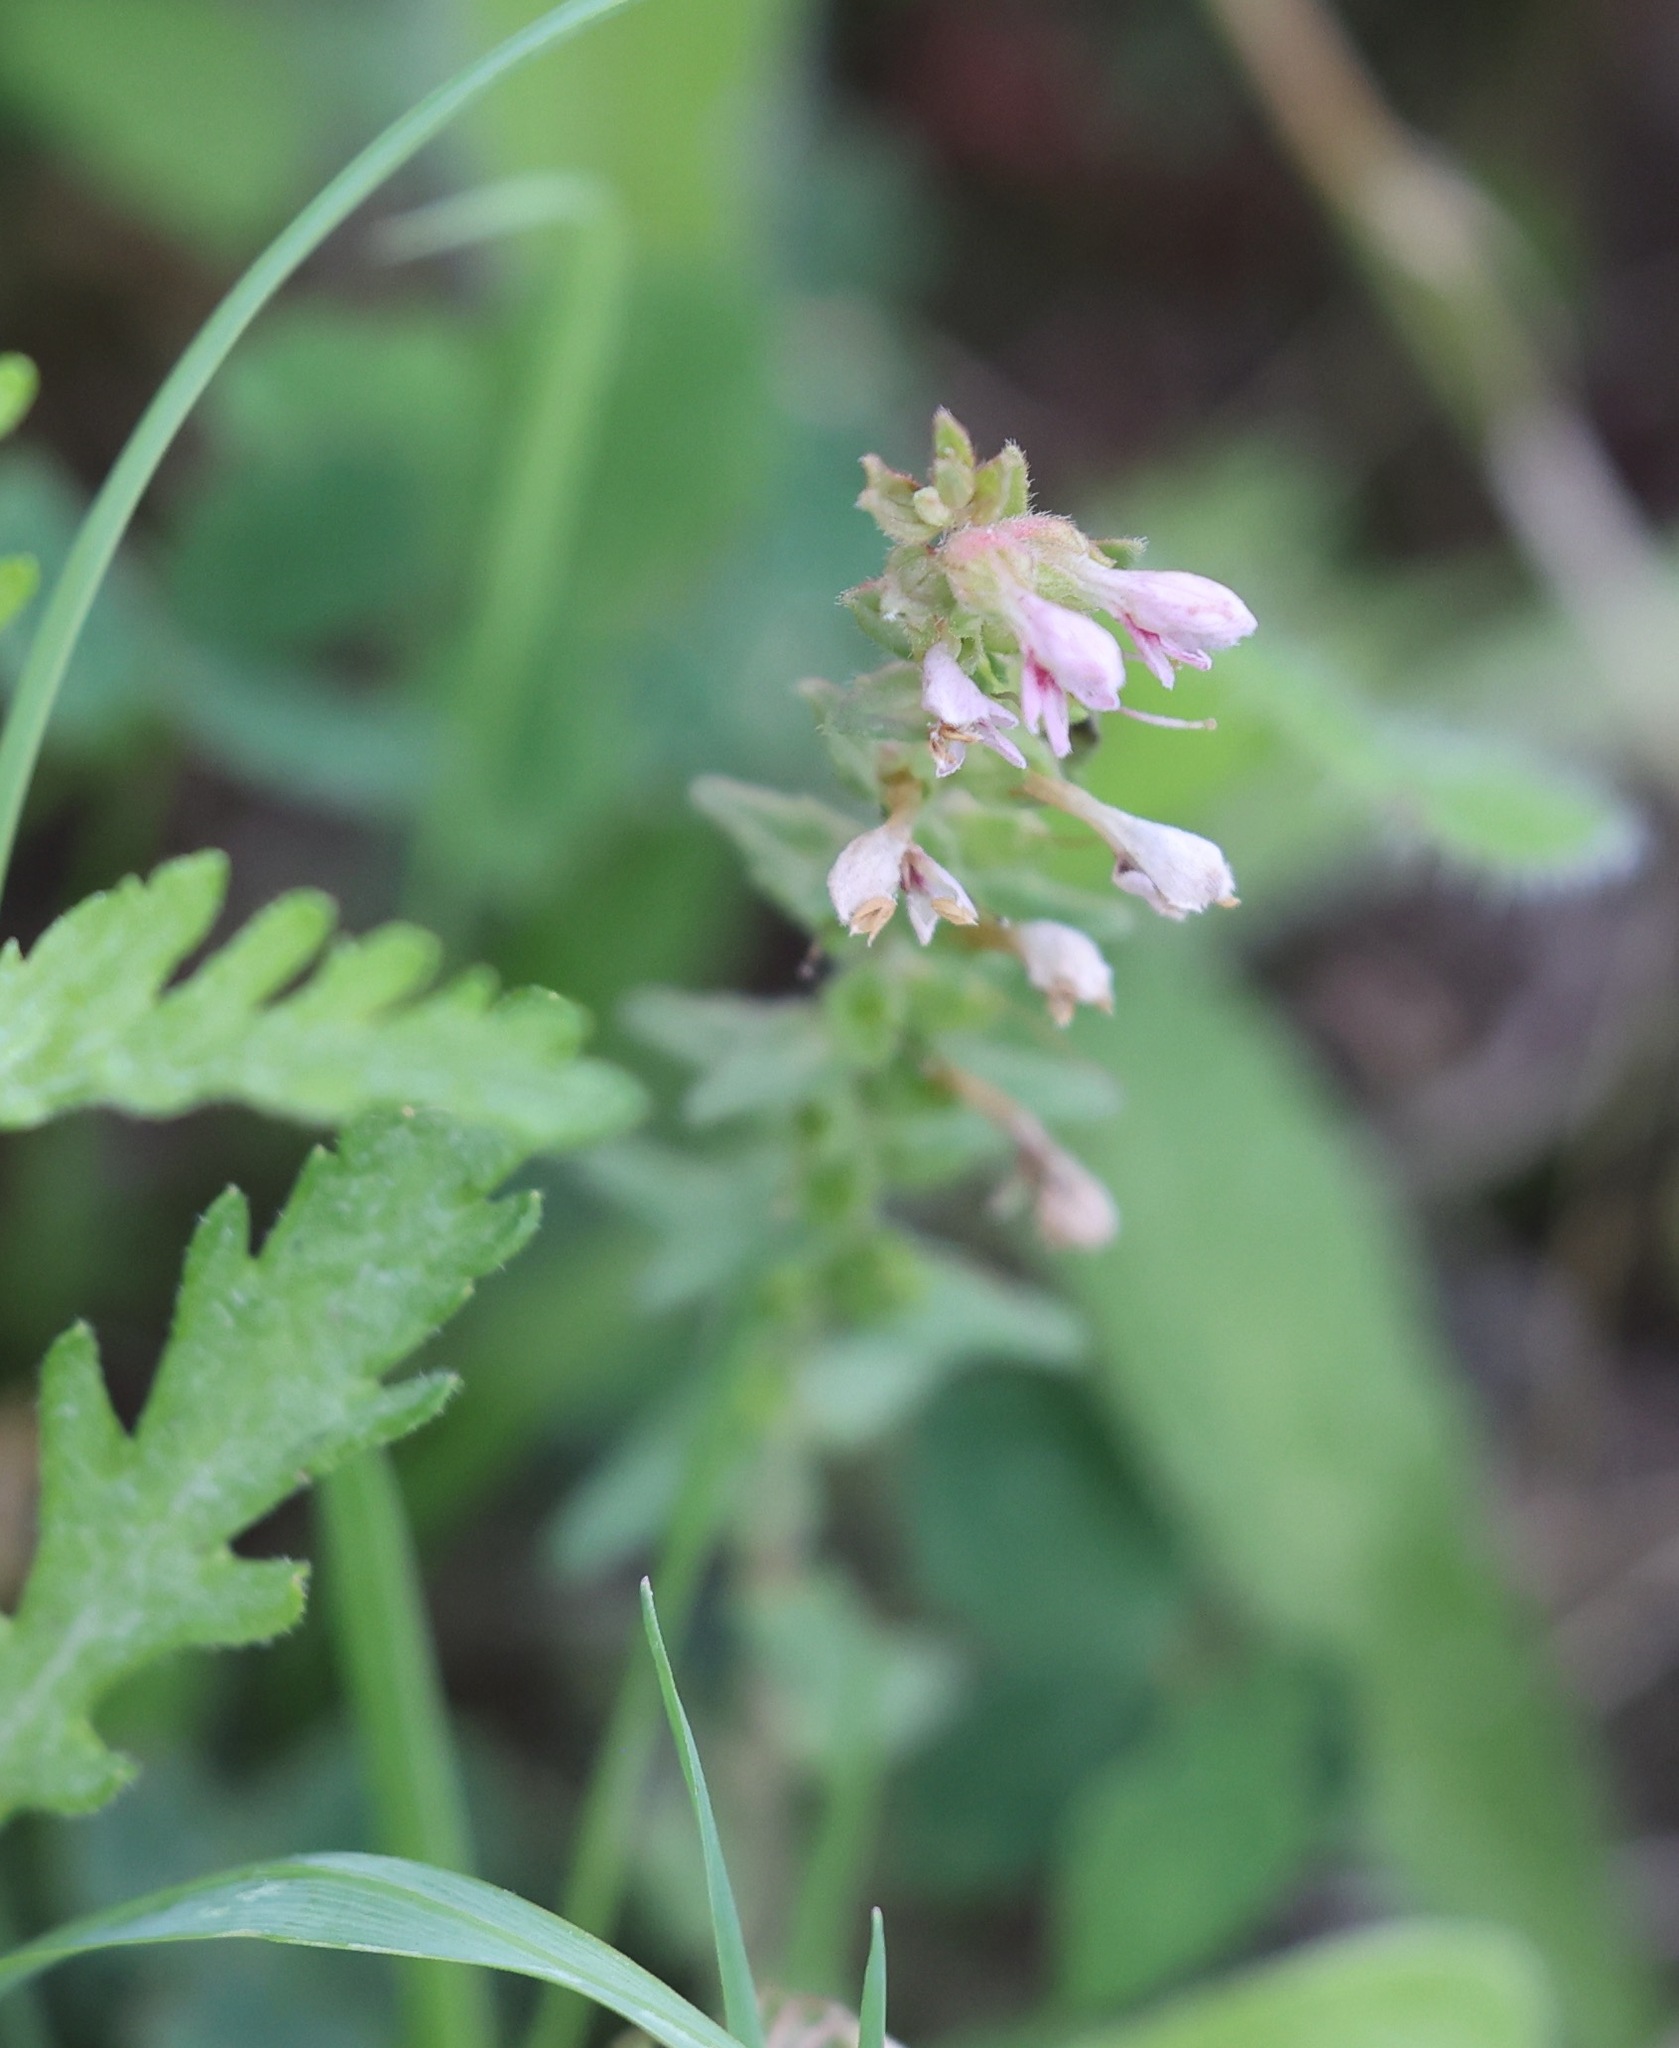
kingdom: Plantae
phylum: Tracheophyta
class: Magnoliopsida
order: Lamiales
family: Orobanchaceae
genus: Odontites
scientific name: Odontites vulgaris
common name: Broomrape
